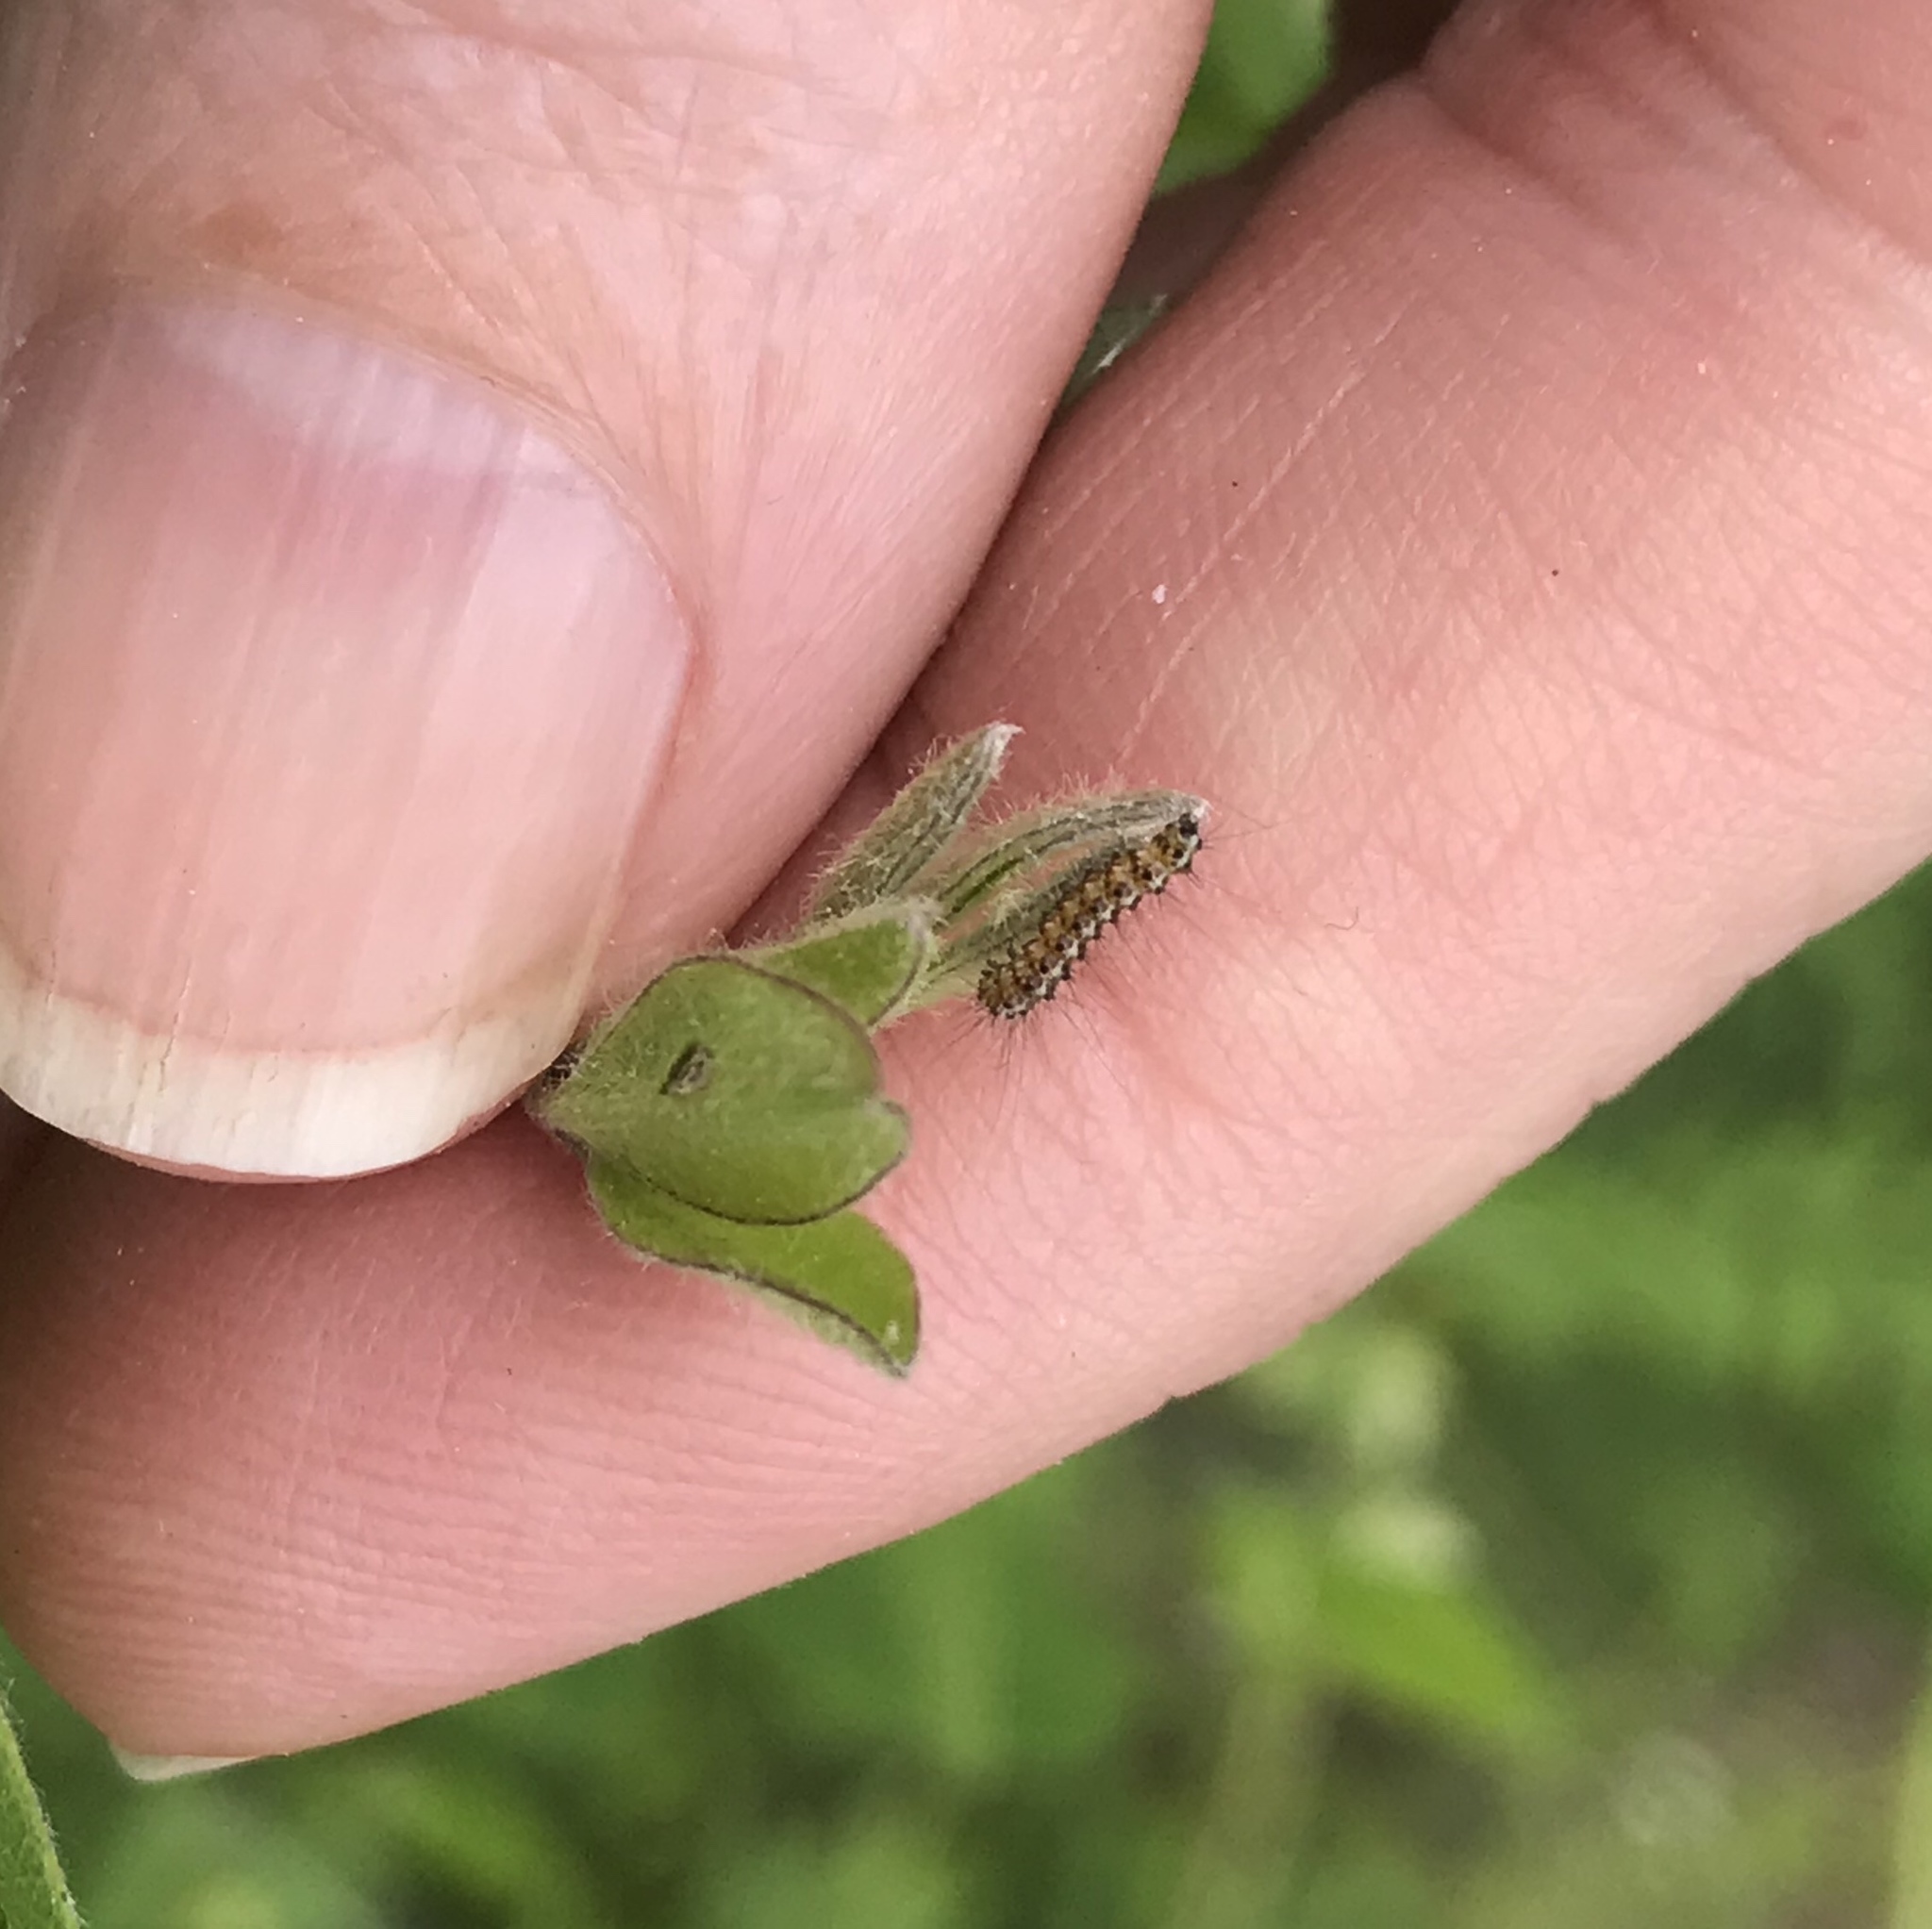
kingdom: Animalia
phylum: Arthropoda
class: Insecta
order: Lepidoptera
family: Erebidae
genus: Hyphantria
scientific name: Hyphantria cunea
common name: American white moth
